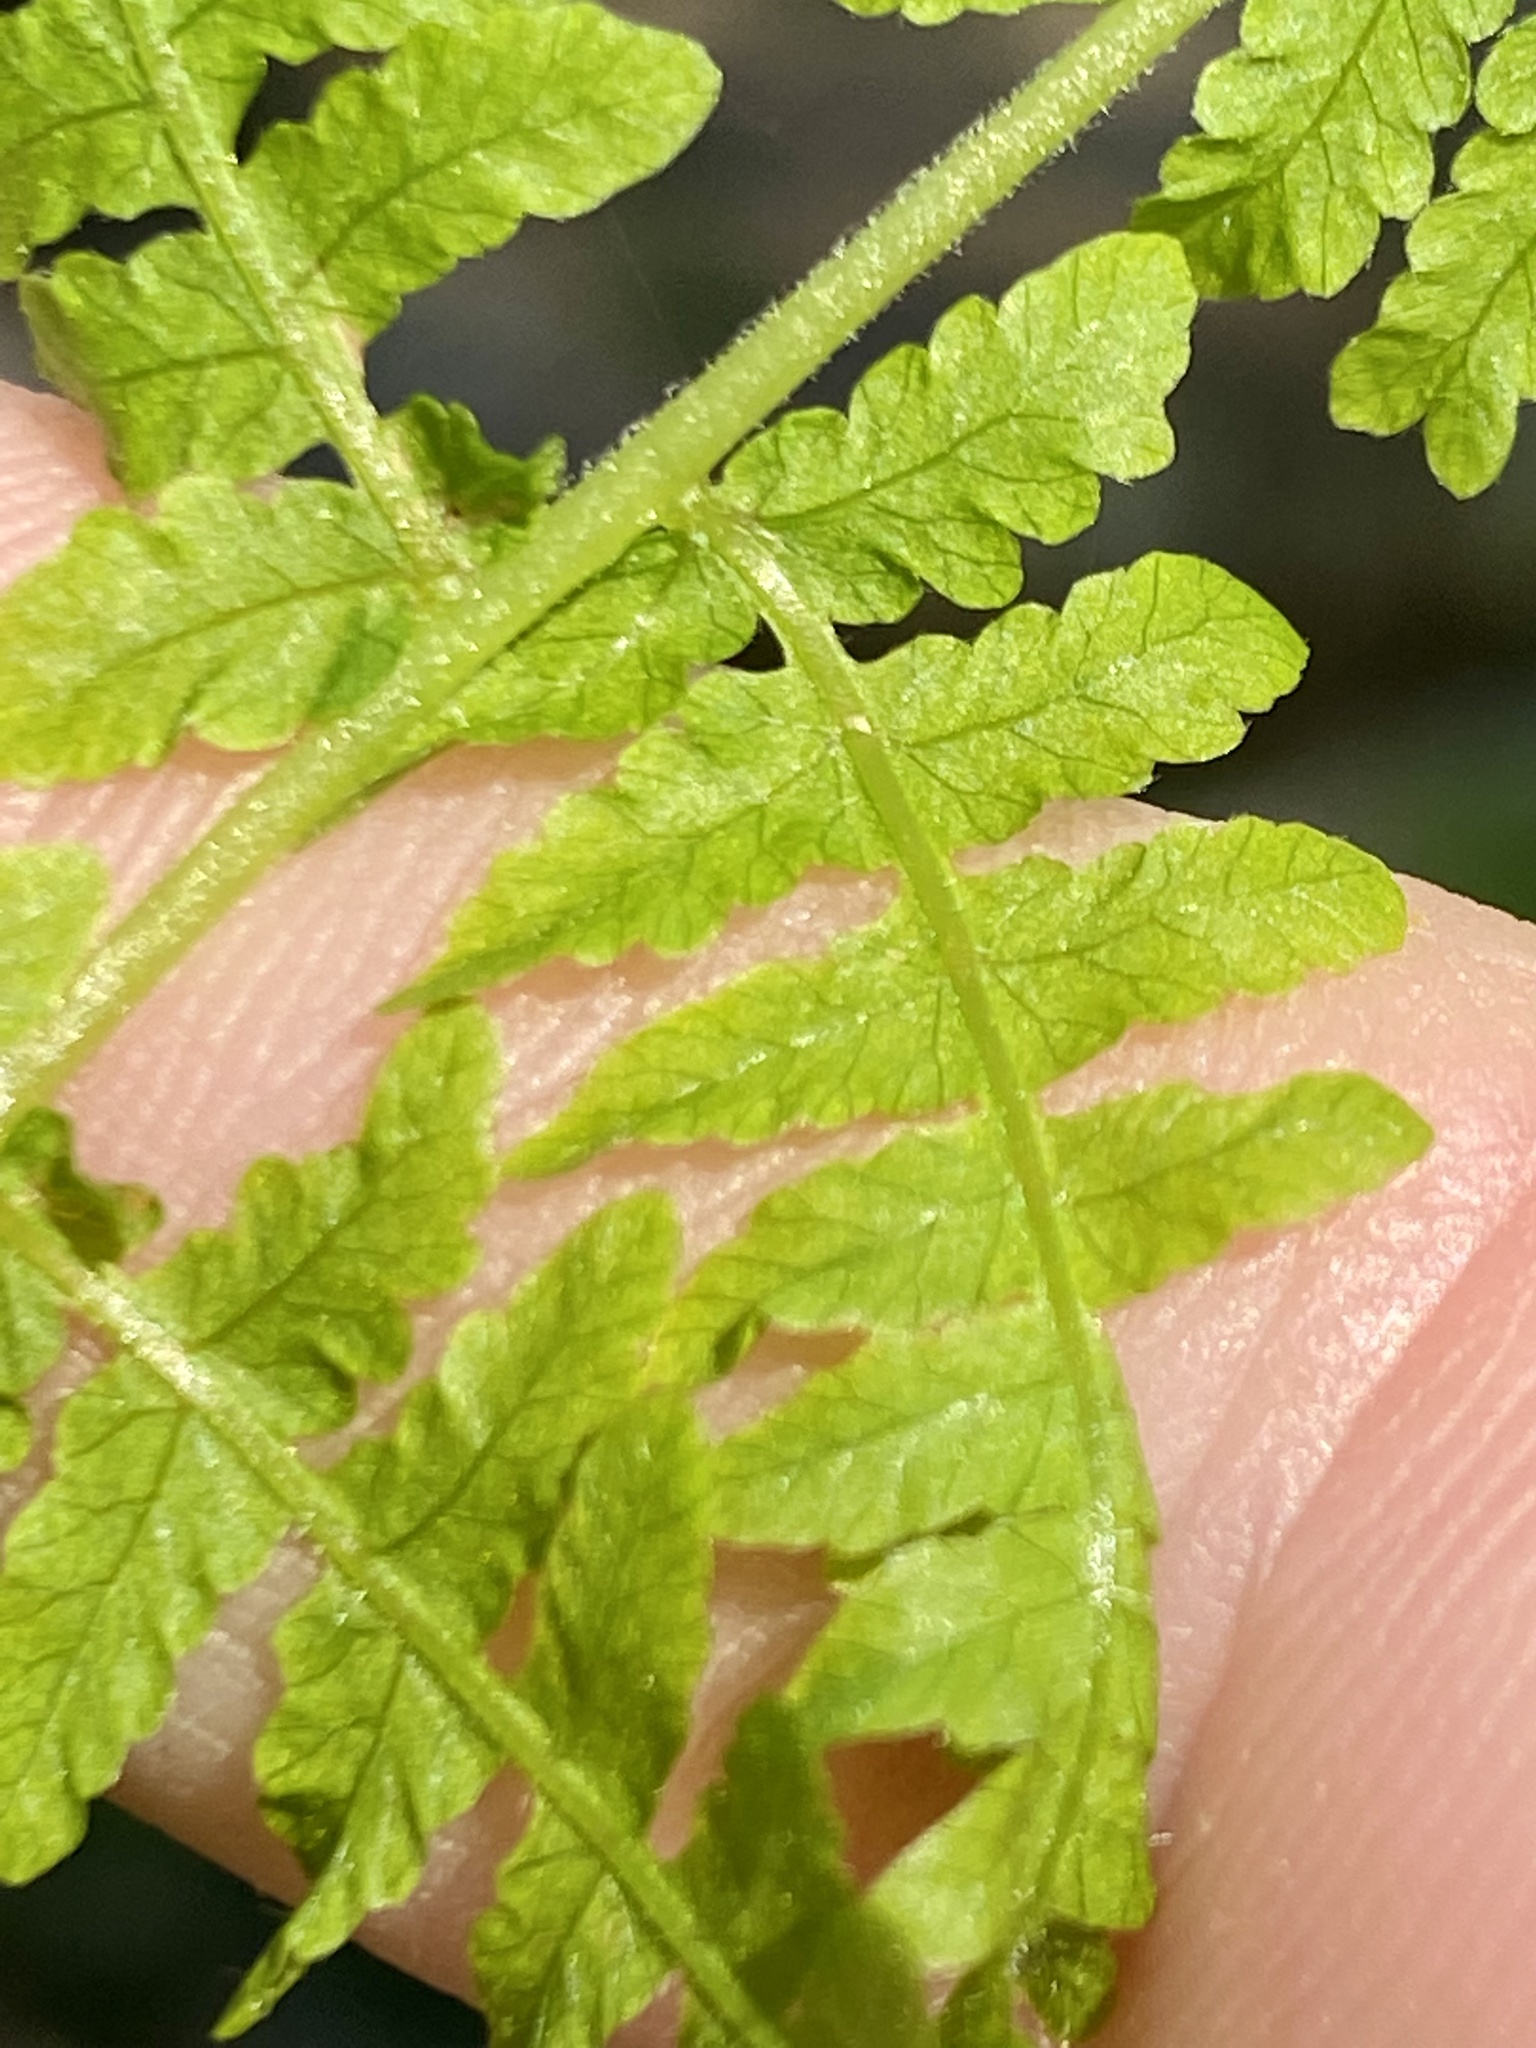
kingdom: Plantae
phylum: Tracheophyta
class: Polypodiopsida
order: Polypodiales
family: Thelypteridaceae
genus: Amauropelta
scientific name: Amauropelta noveboracensis
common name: New york fern
